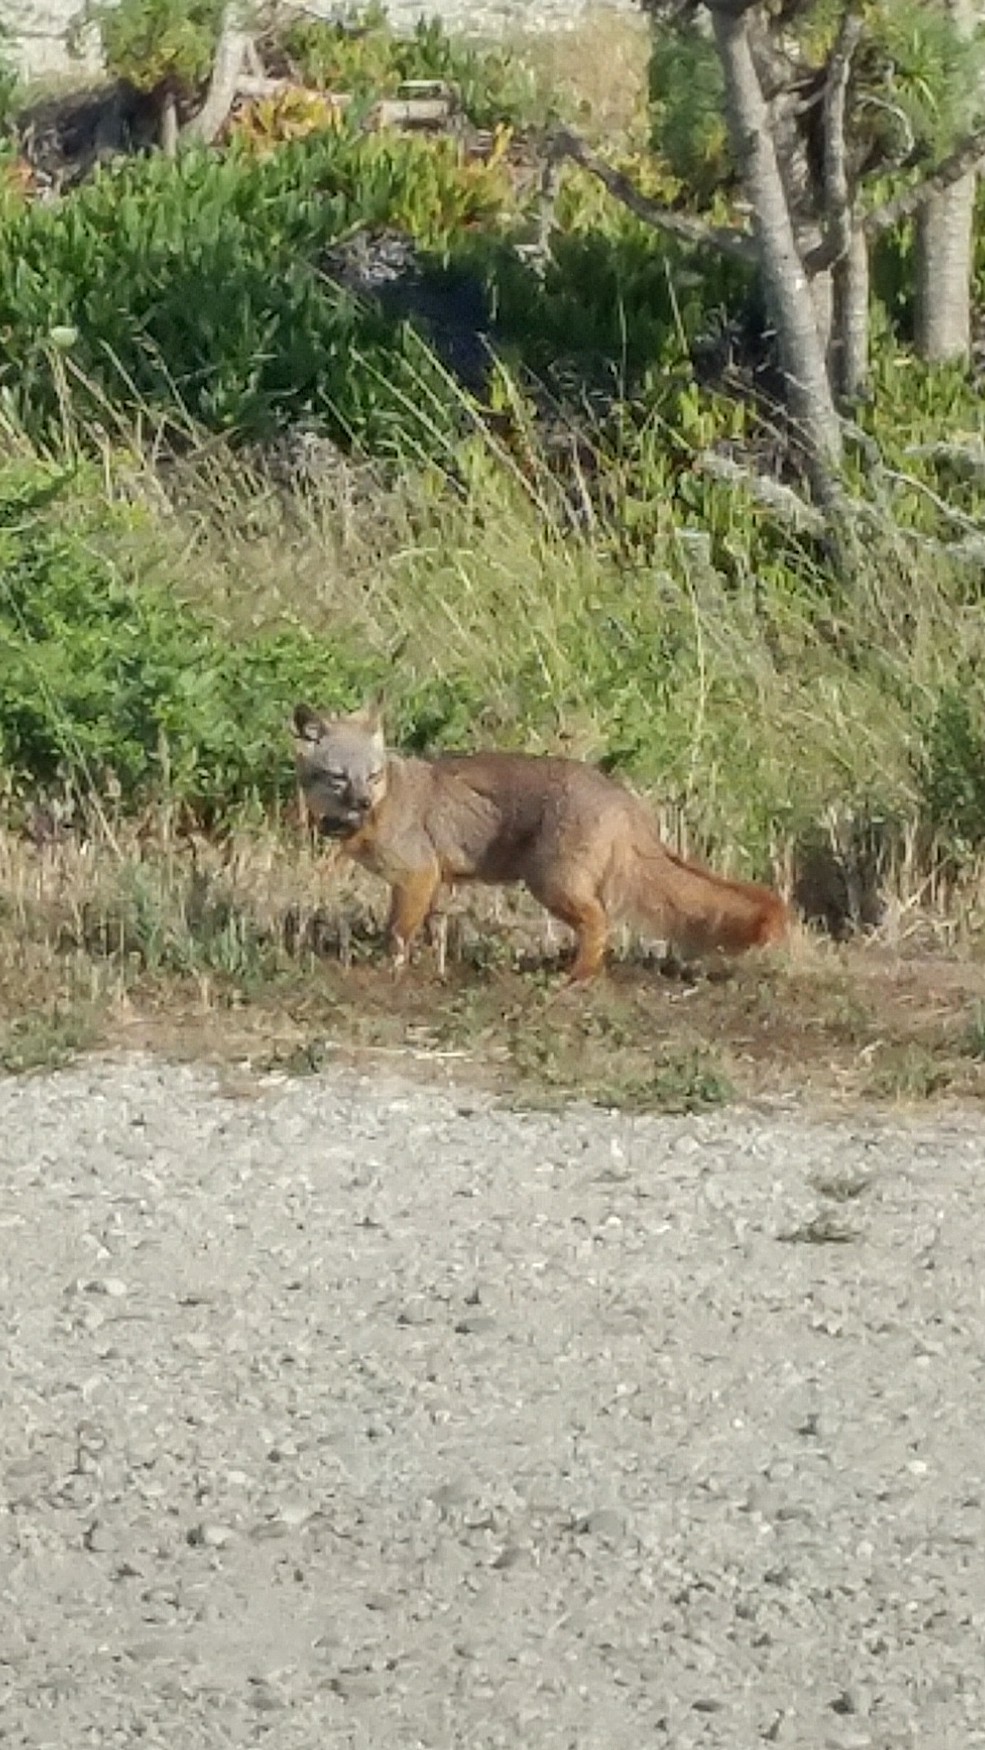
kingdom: Animalia
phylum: Chordata
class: Mammalia
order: Carnivora
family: Canidae
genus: Urocyon
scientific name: Urocyon littoralis
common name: Island gray fox
